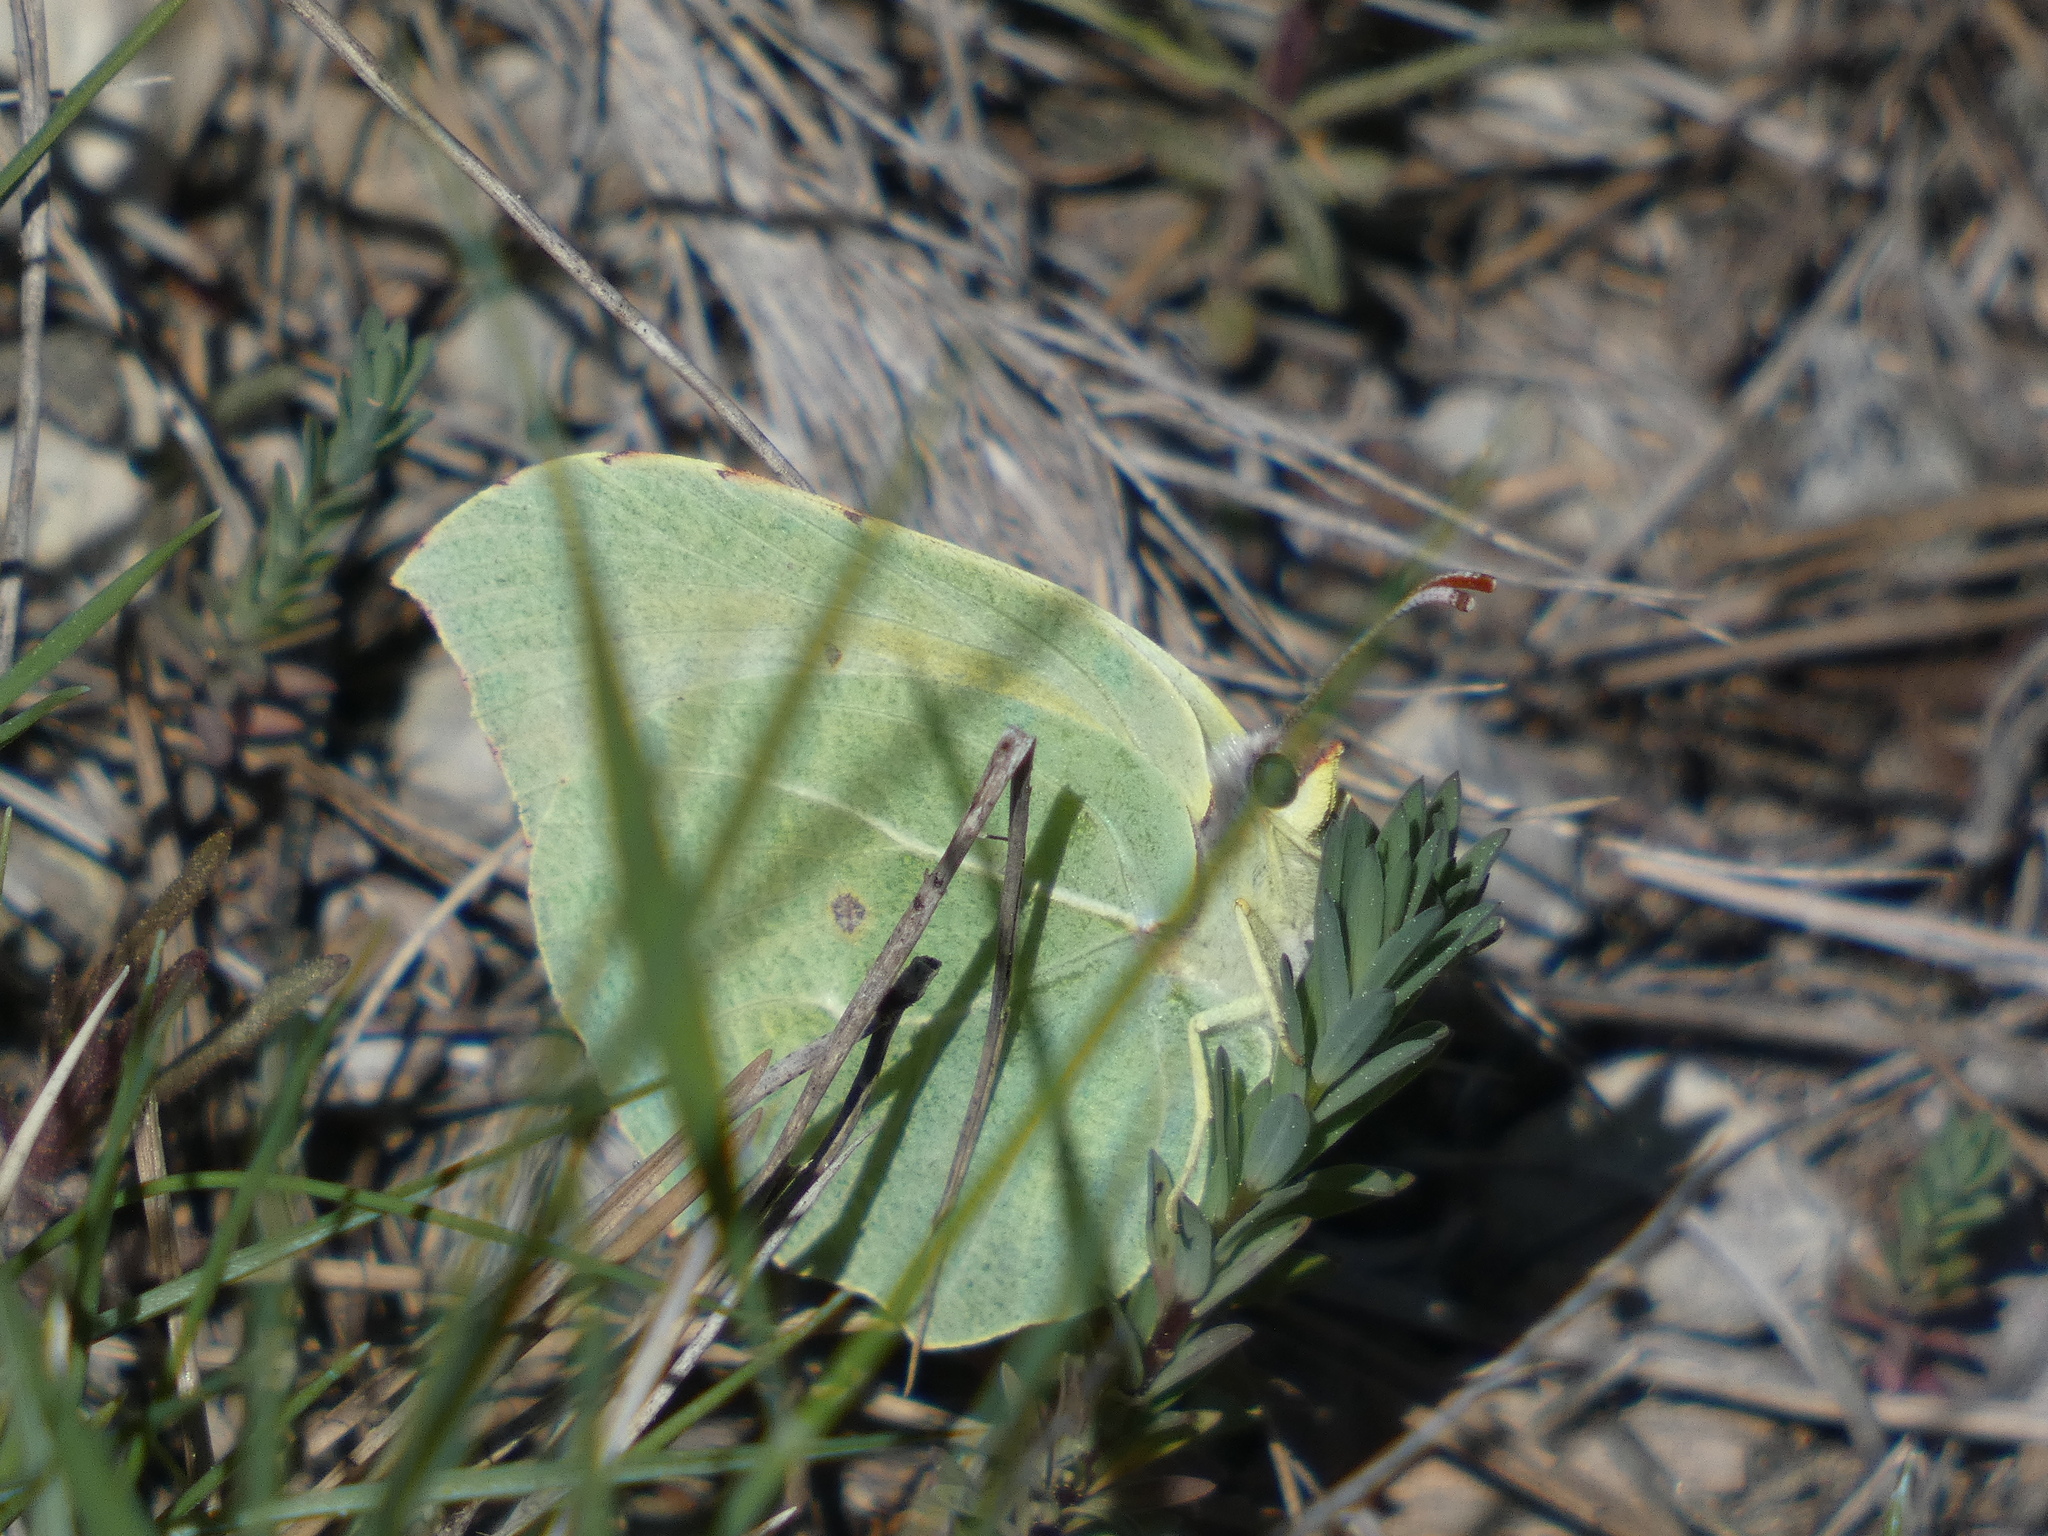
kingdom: Animalia
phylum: Arthropoda
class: Insecta
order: Lepidoptera
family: Pieridae
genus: Gonepteryx
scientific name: Gonepteryx cleopatra
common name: Cleopatra
